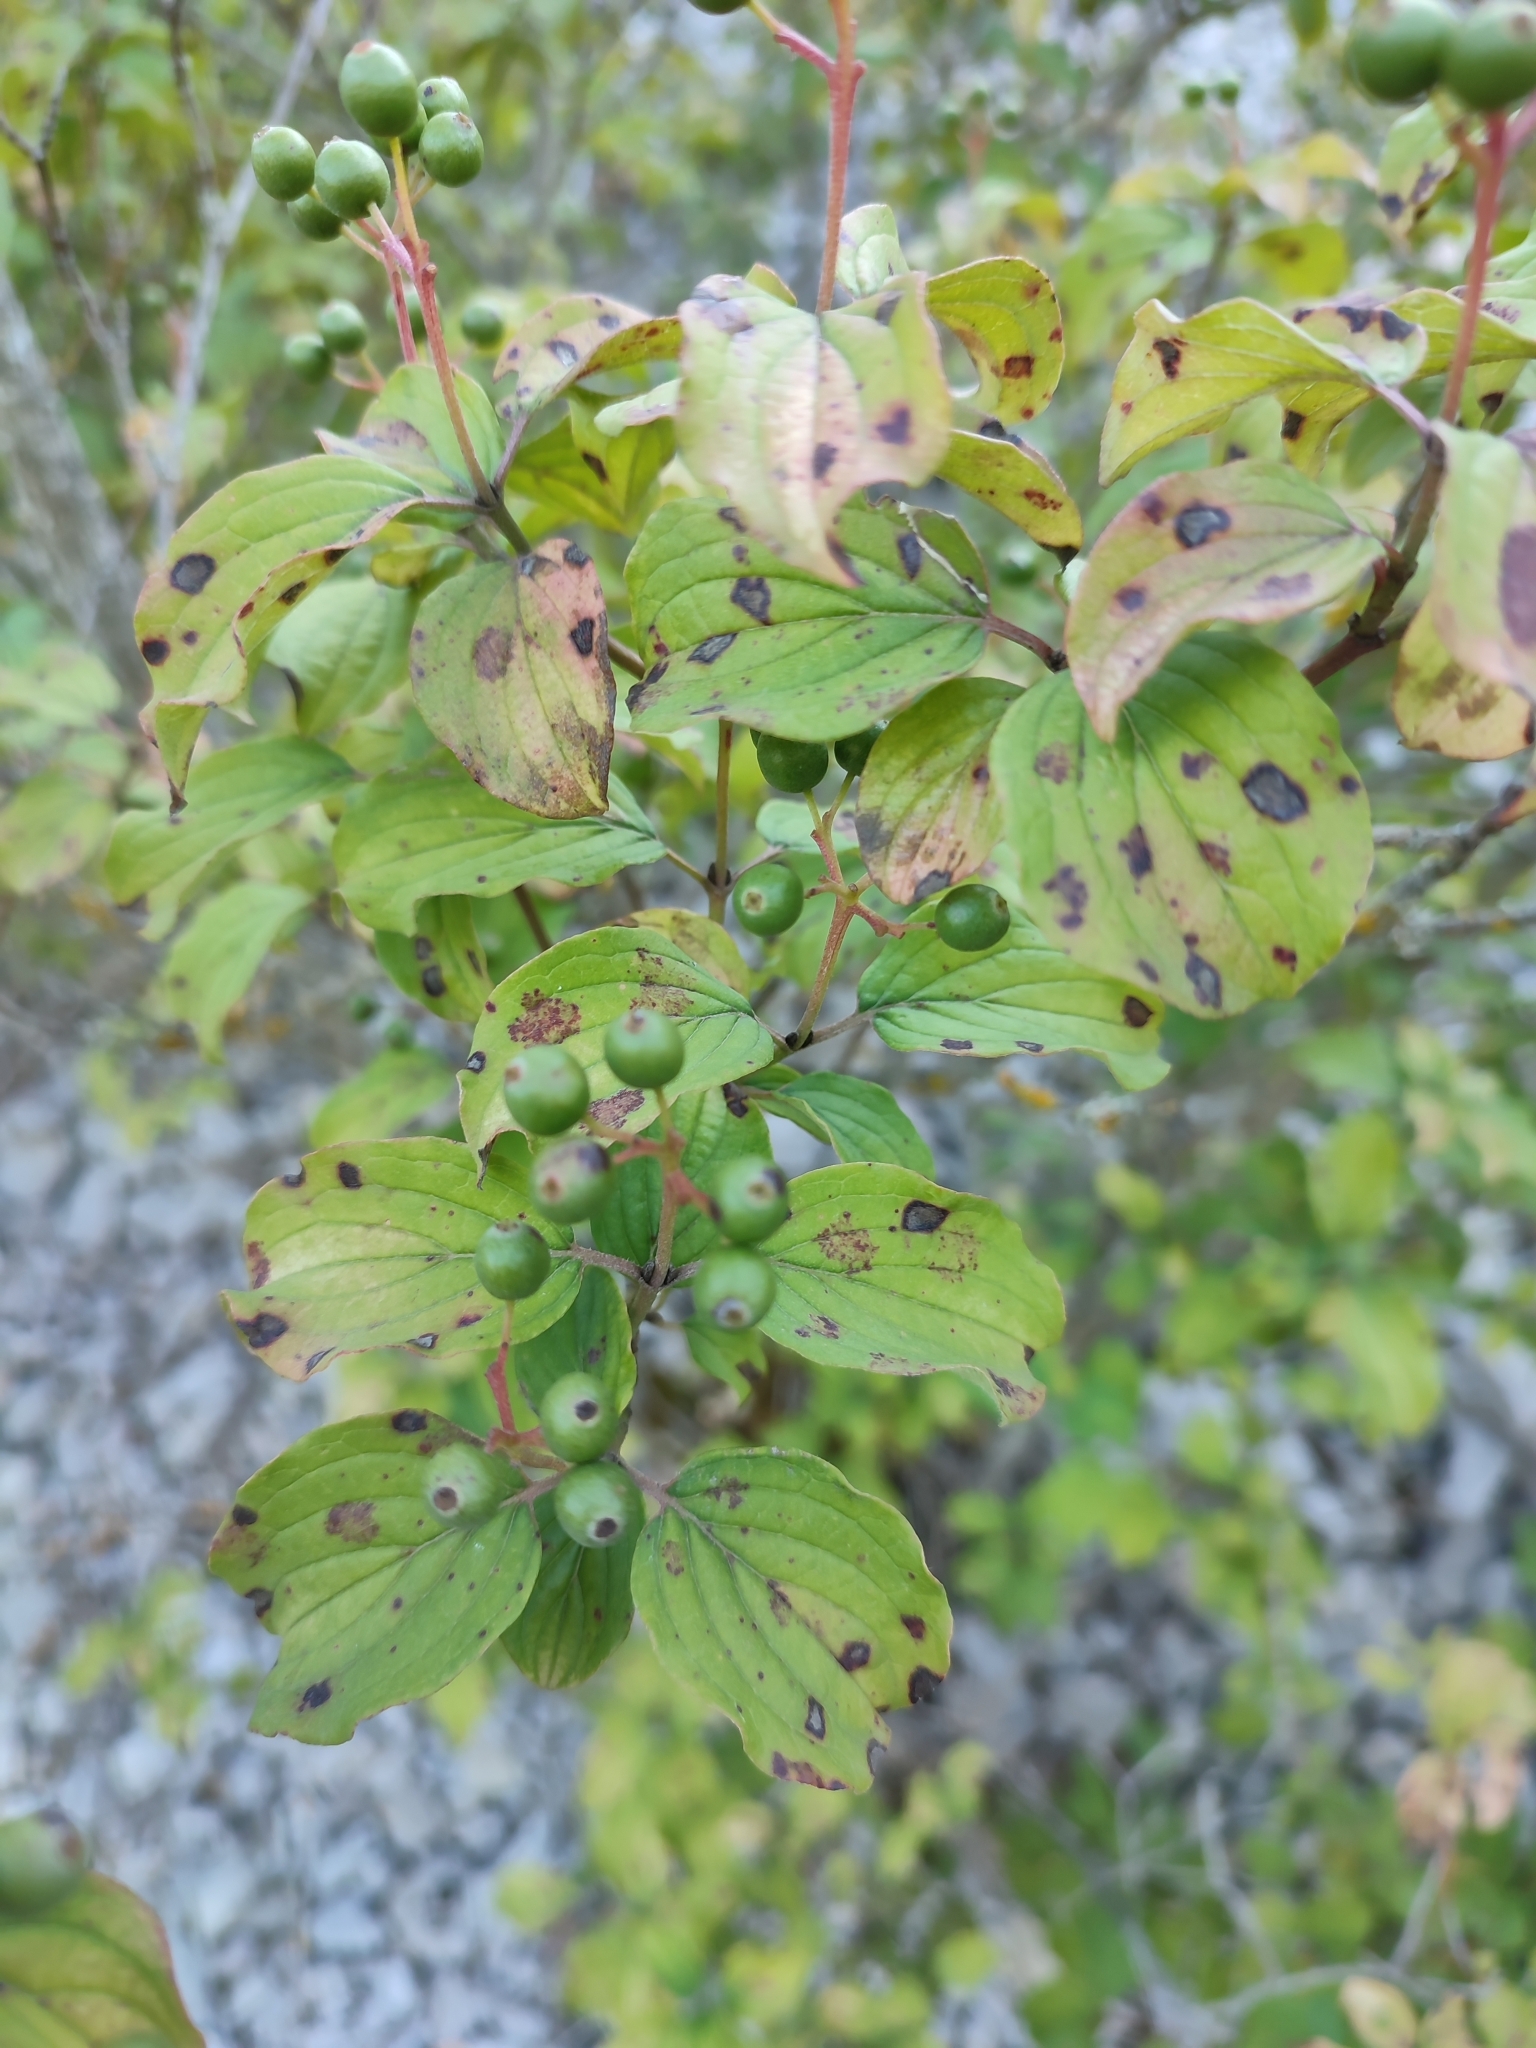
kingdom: Plantae
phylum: Tracheophyta
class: Magnoliopsida
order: Cornales
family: Cornaceae
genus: Cornus
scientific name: Cornus sanguinea
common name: Dogwood
